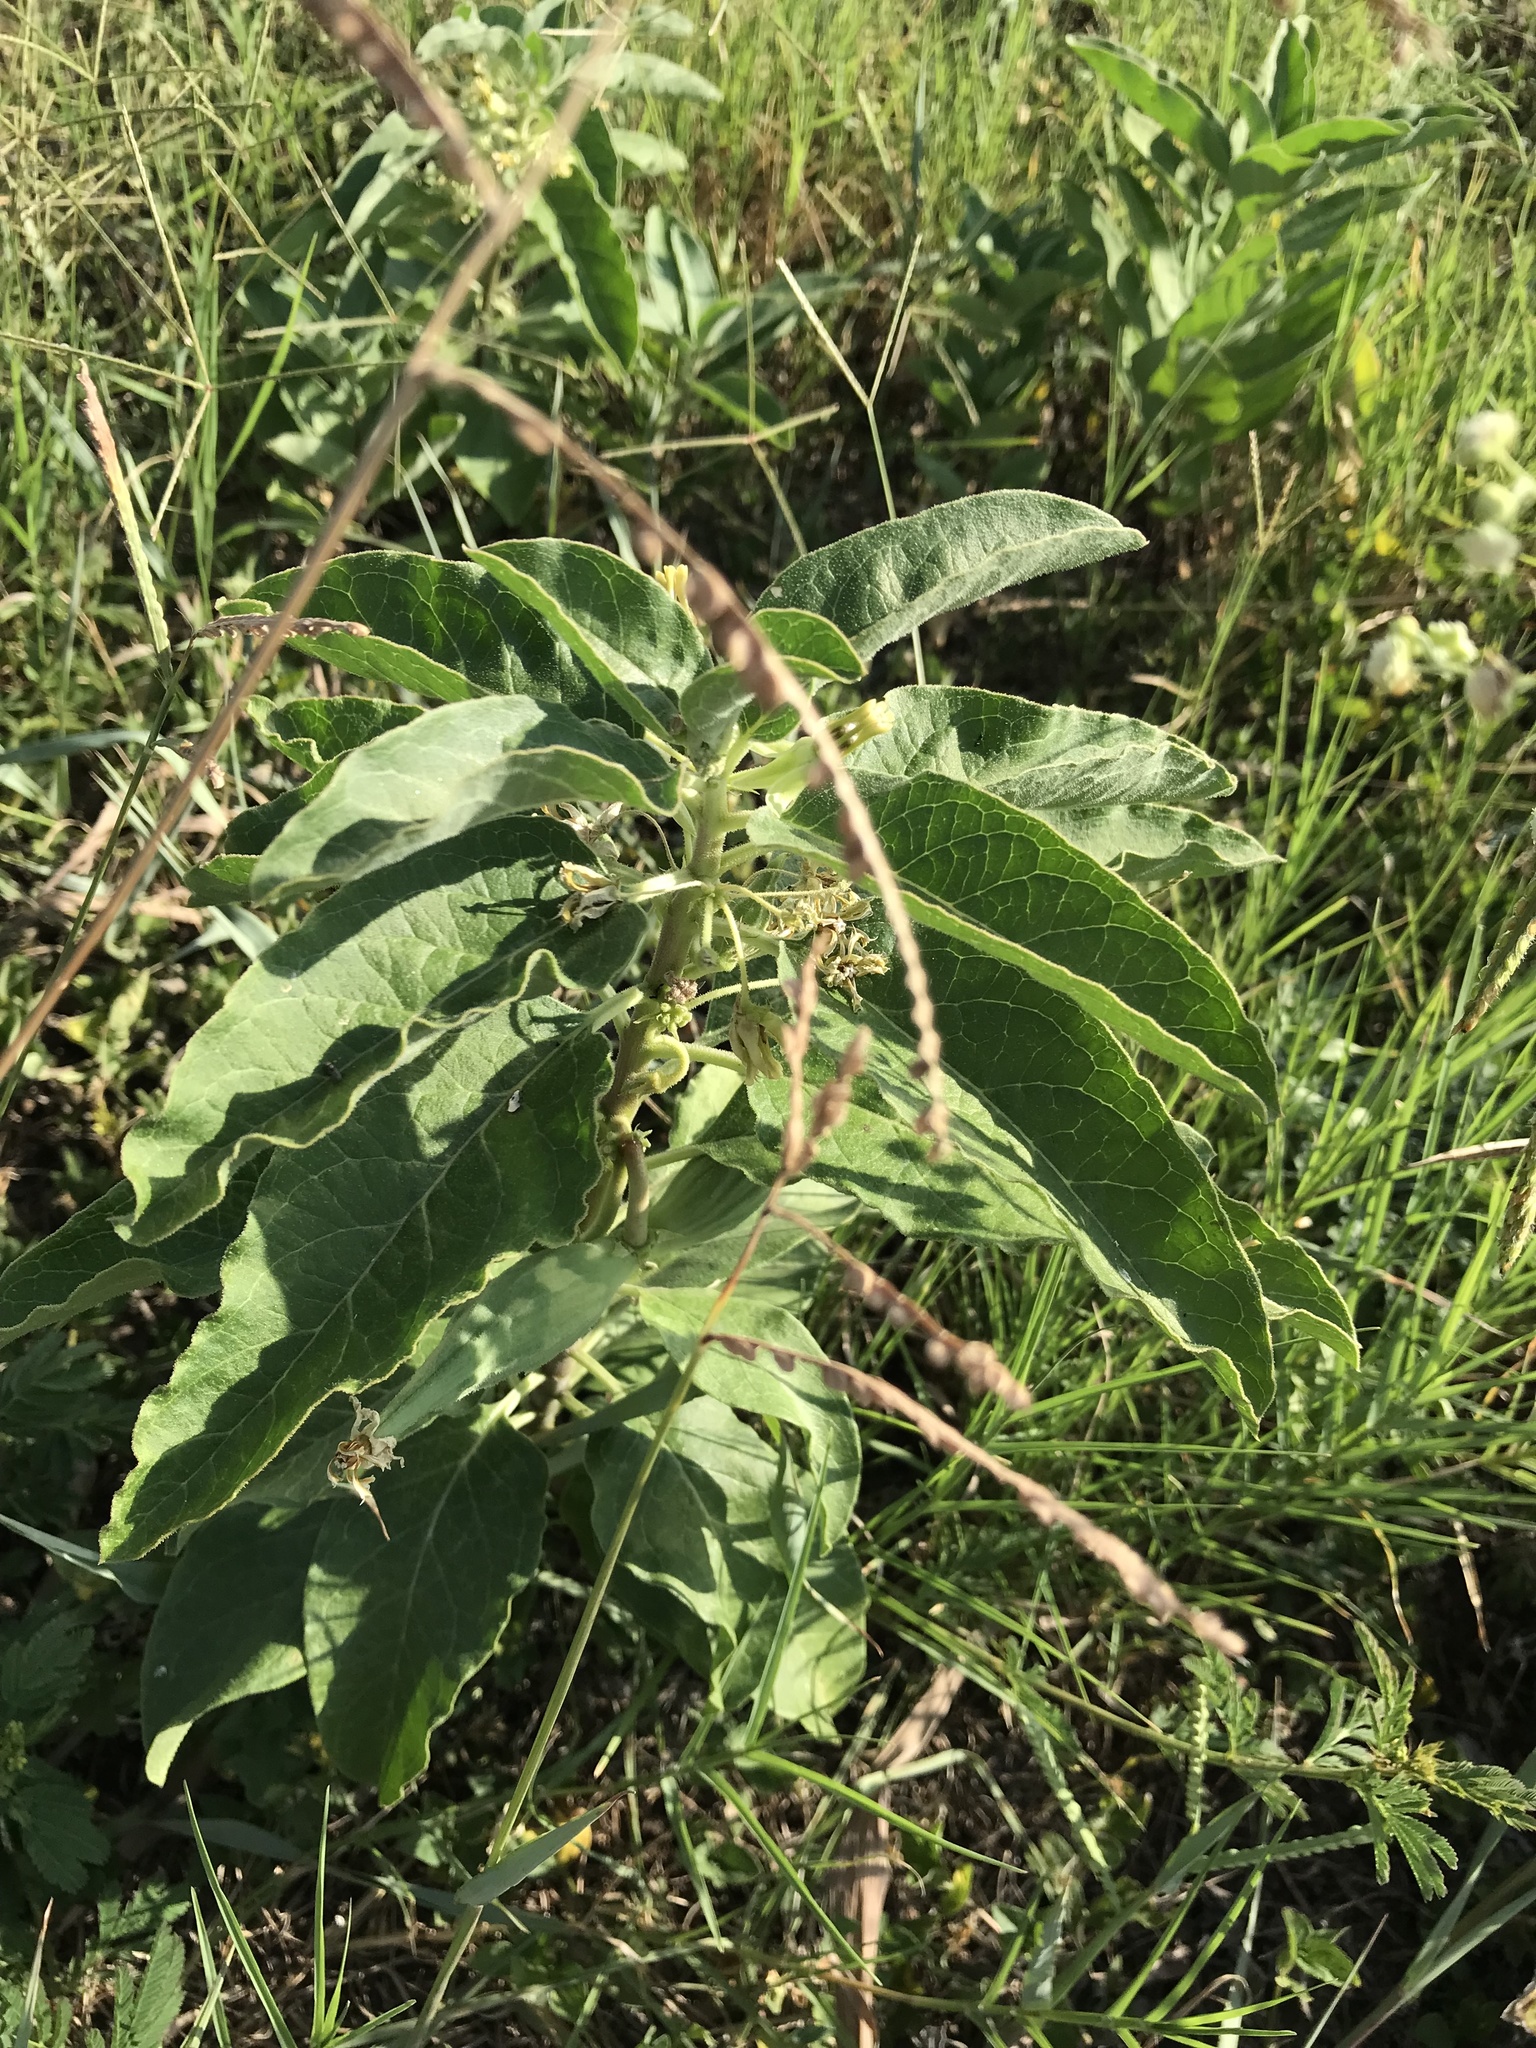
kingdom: Plantae
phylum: Tracheophyta
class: Magnoliopsida
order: Gentianales
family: Apocynaceae
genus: Asclepias
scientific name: Asclepias oenotheroides
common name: Zizotes milkweed
